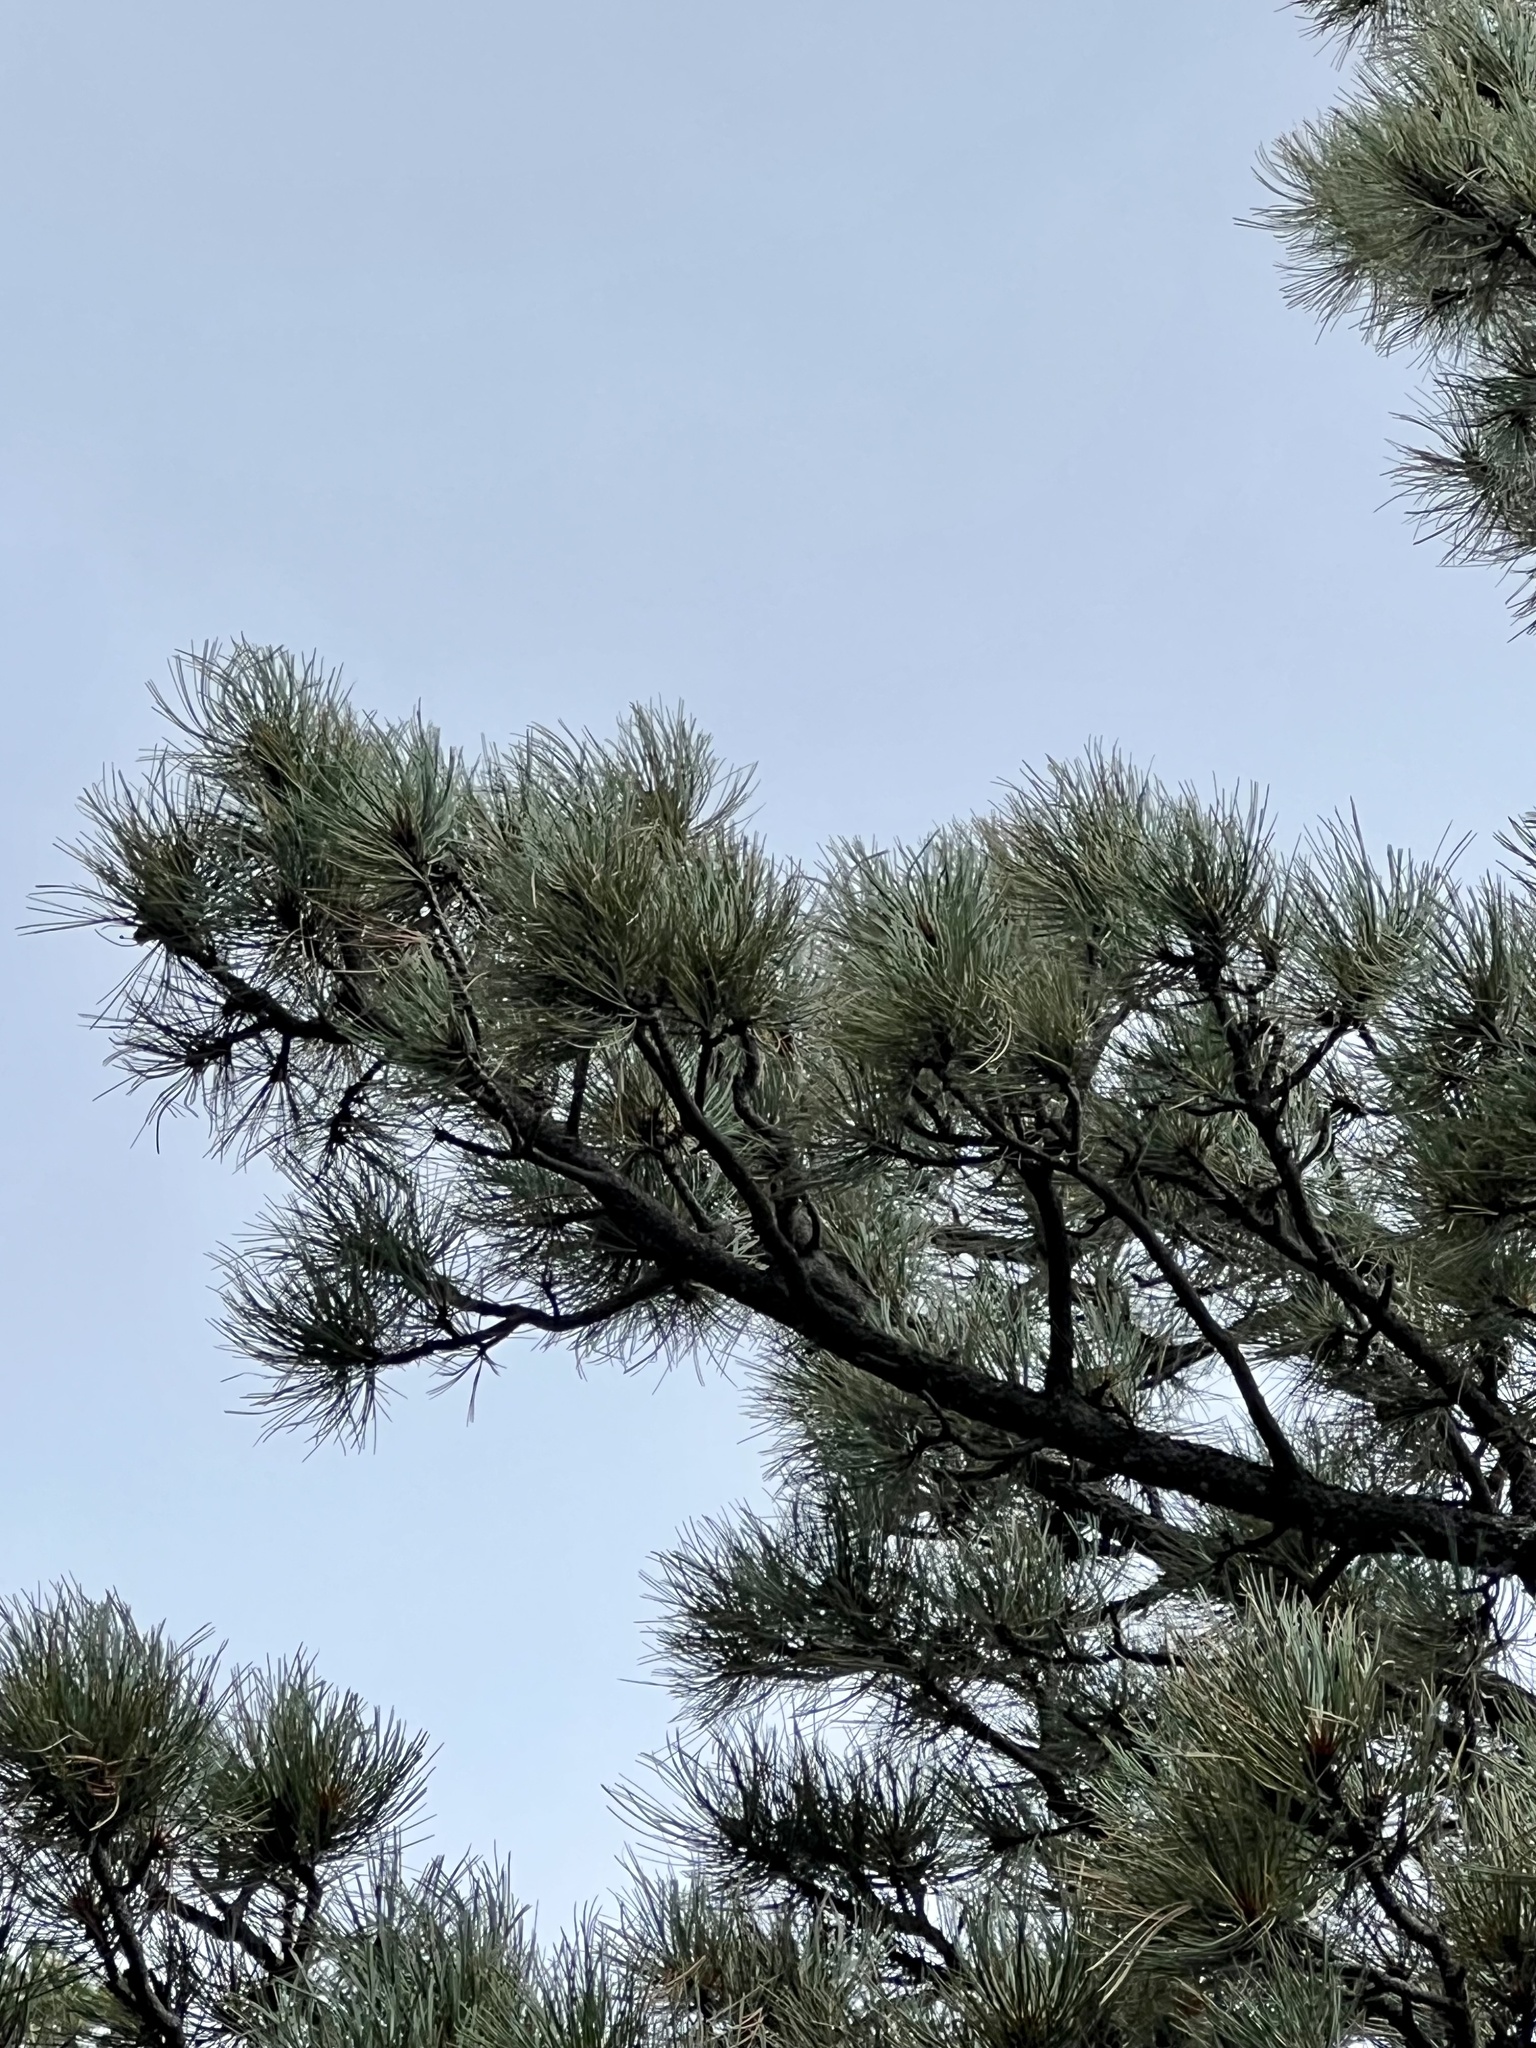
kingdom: Plantae
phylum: Tracheophyta
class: Pinopsida
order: Pinales
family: Pinaceae
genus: Pinus
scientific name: Pinus ponderosa
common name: Western yellow-pine
